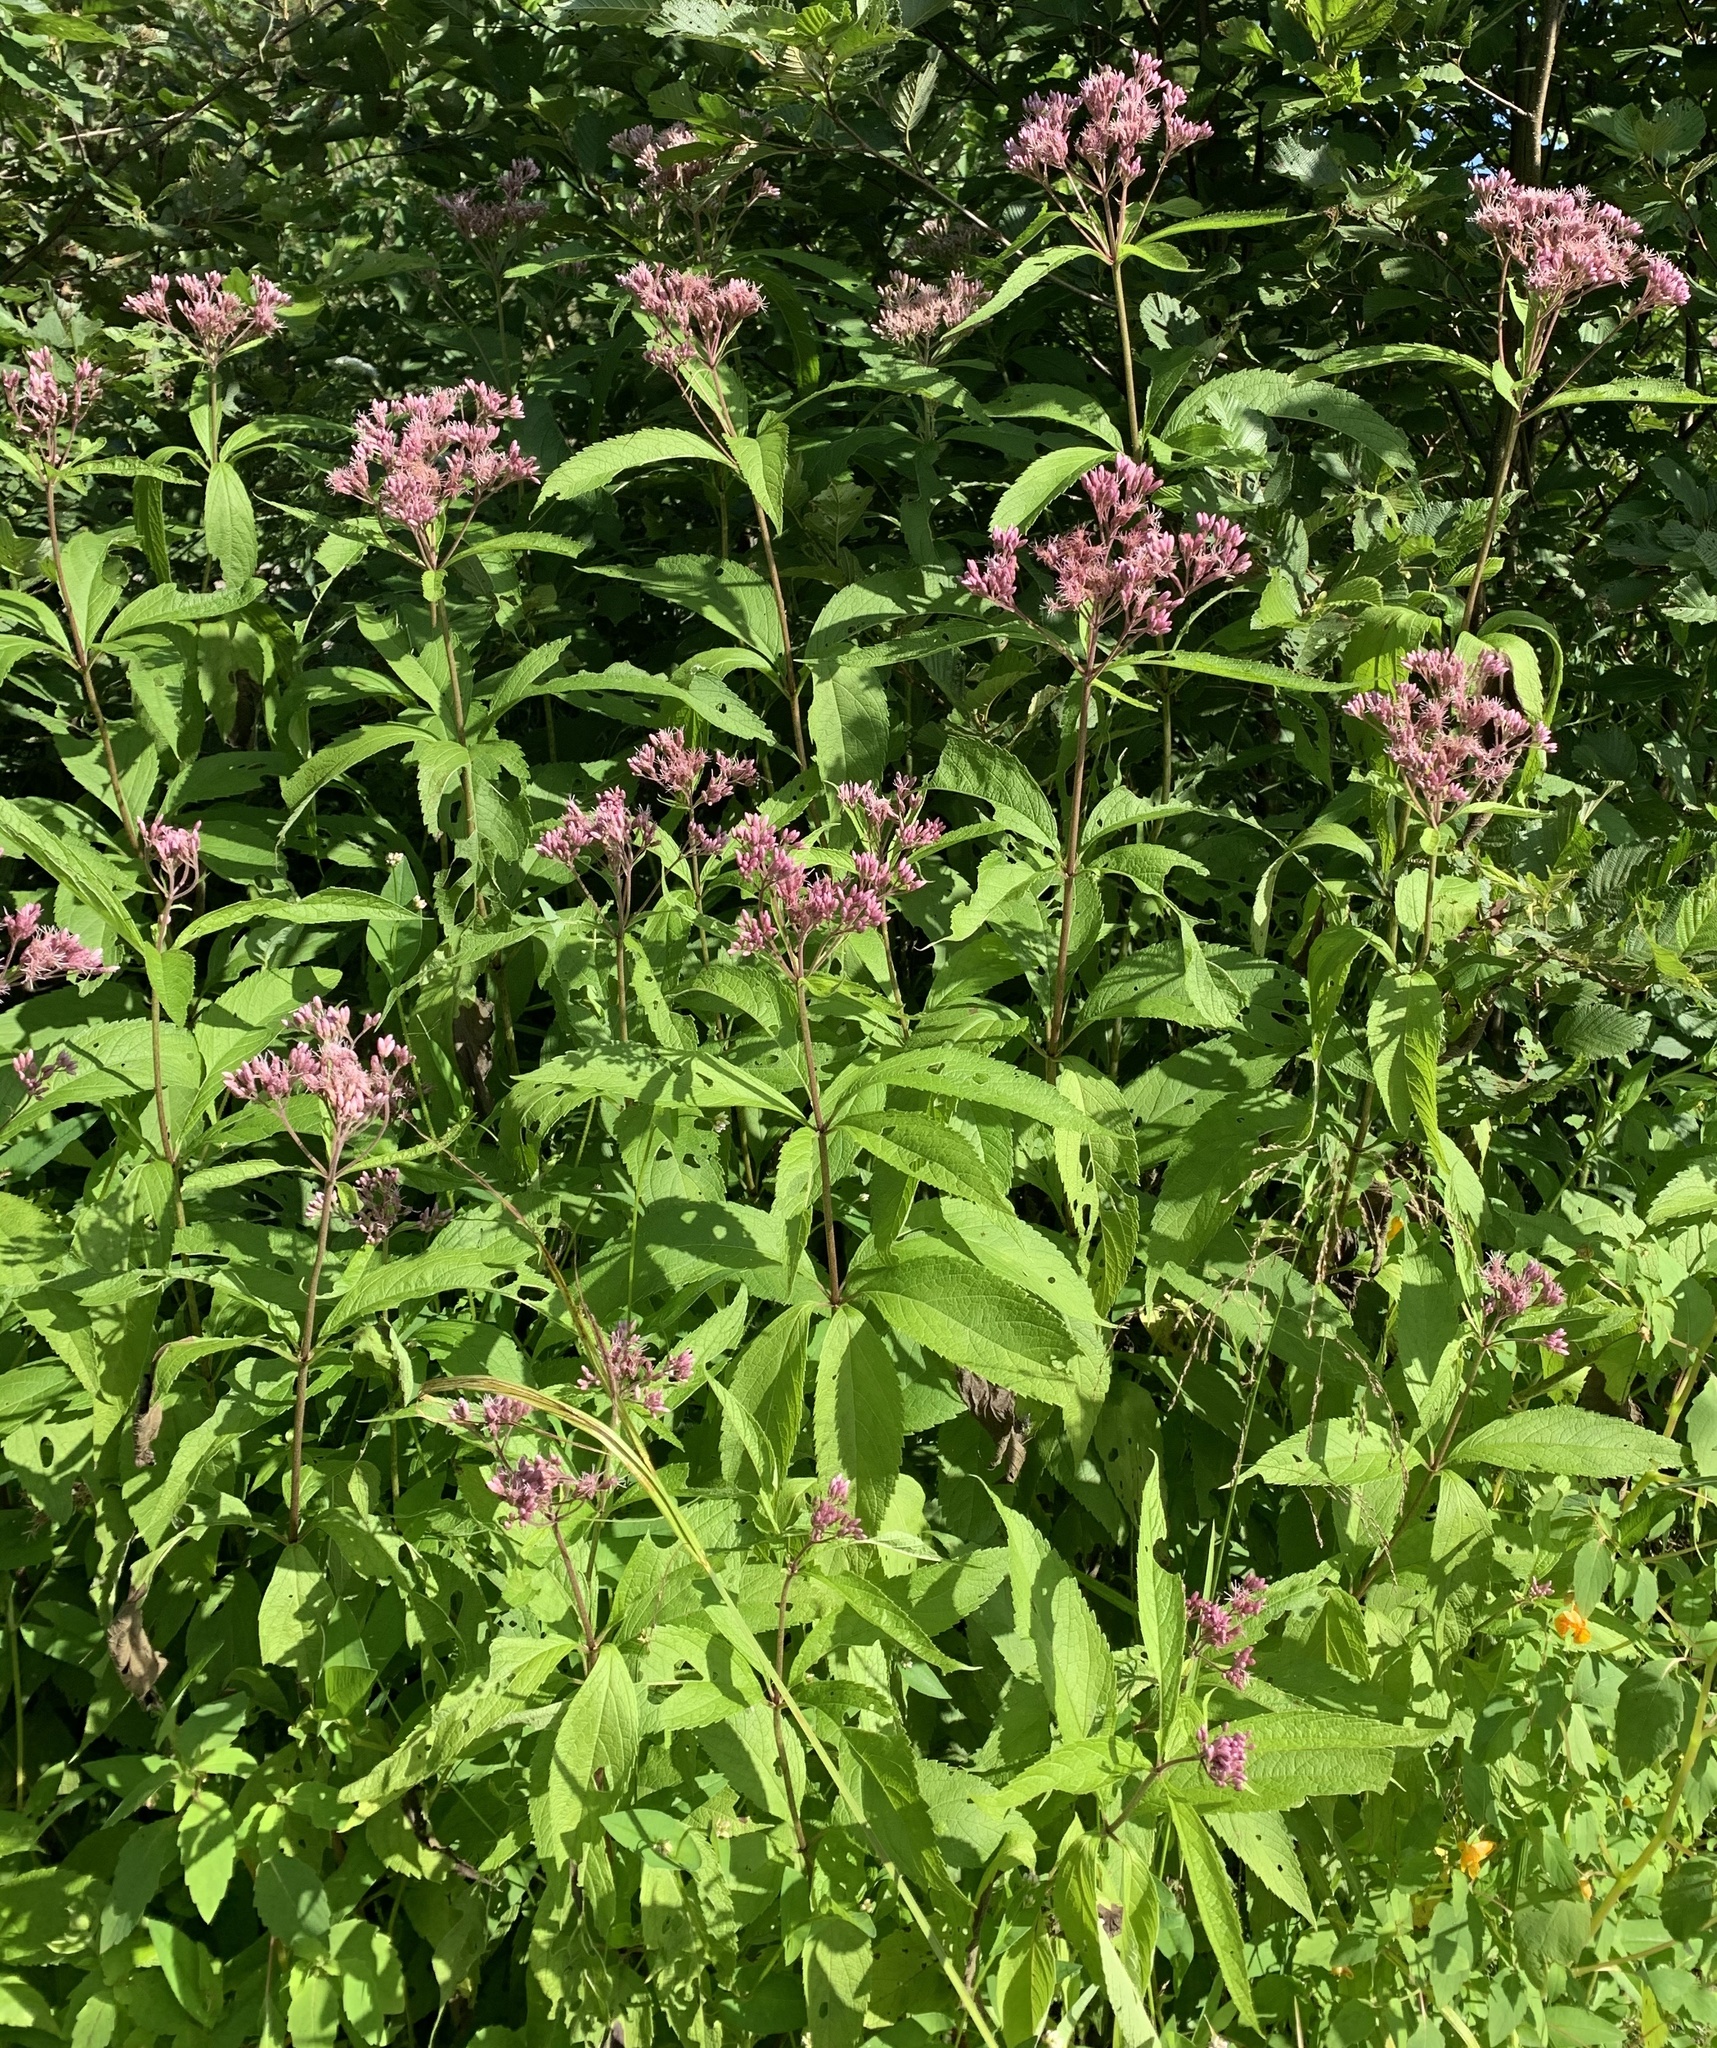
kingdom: Plantae
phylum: Tracheophyta
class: Magnoliopsida
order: Asterales
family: Asteraceae
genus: Eutrochium
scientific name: Eutrochium maculatum
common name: Spotted joe pye weed
